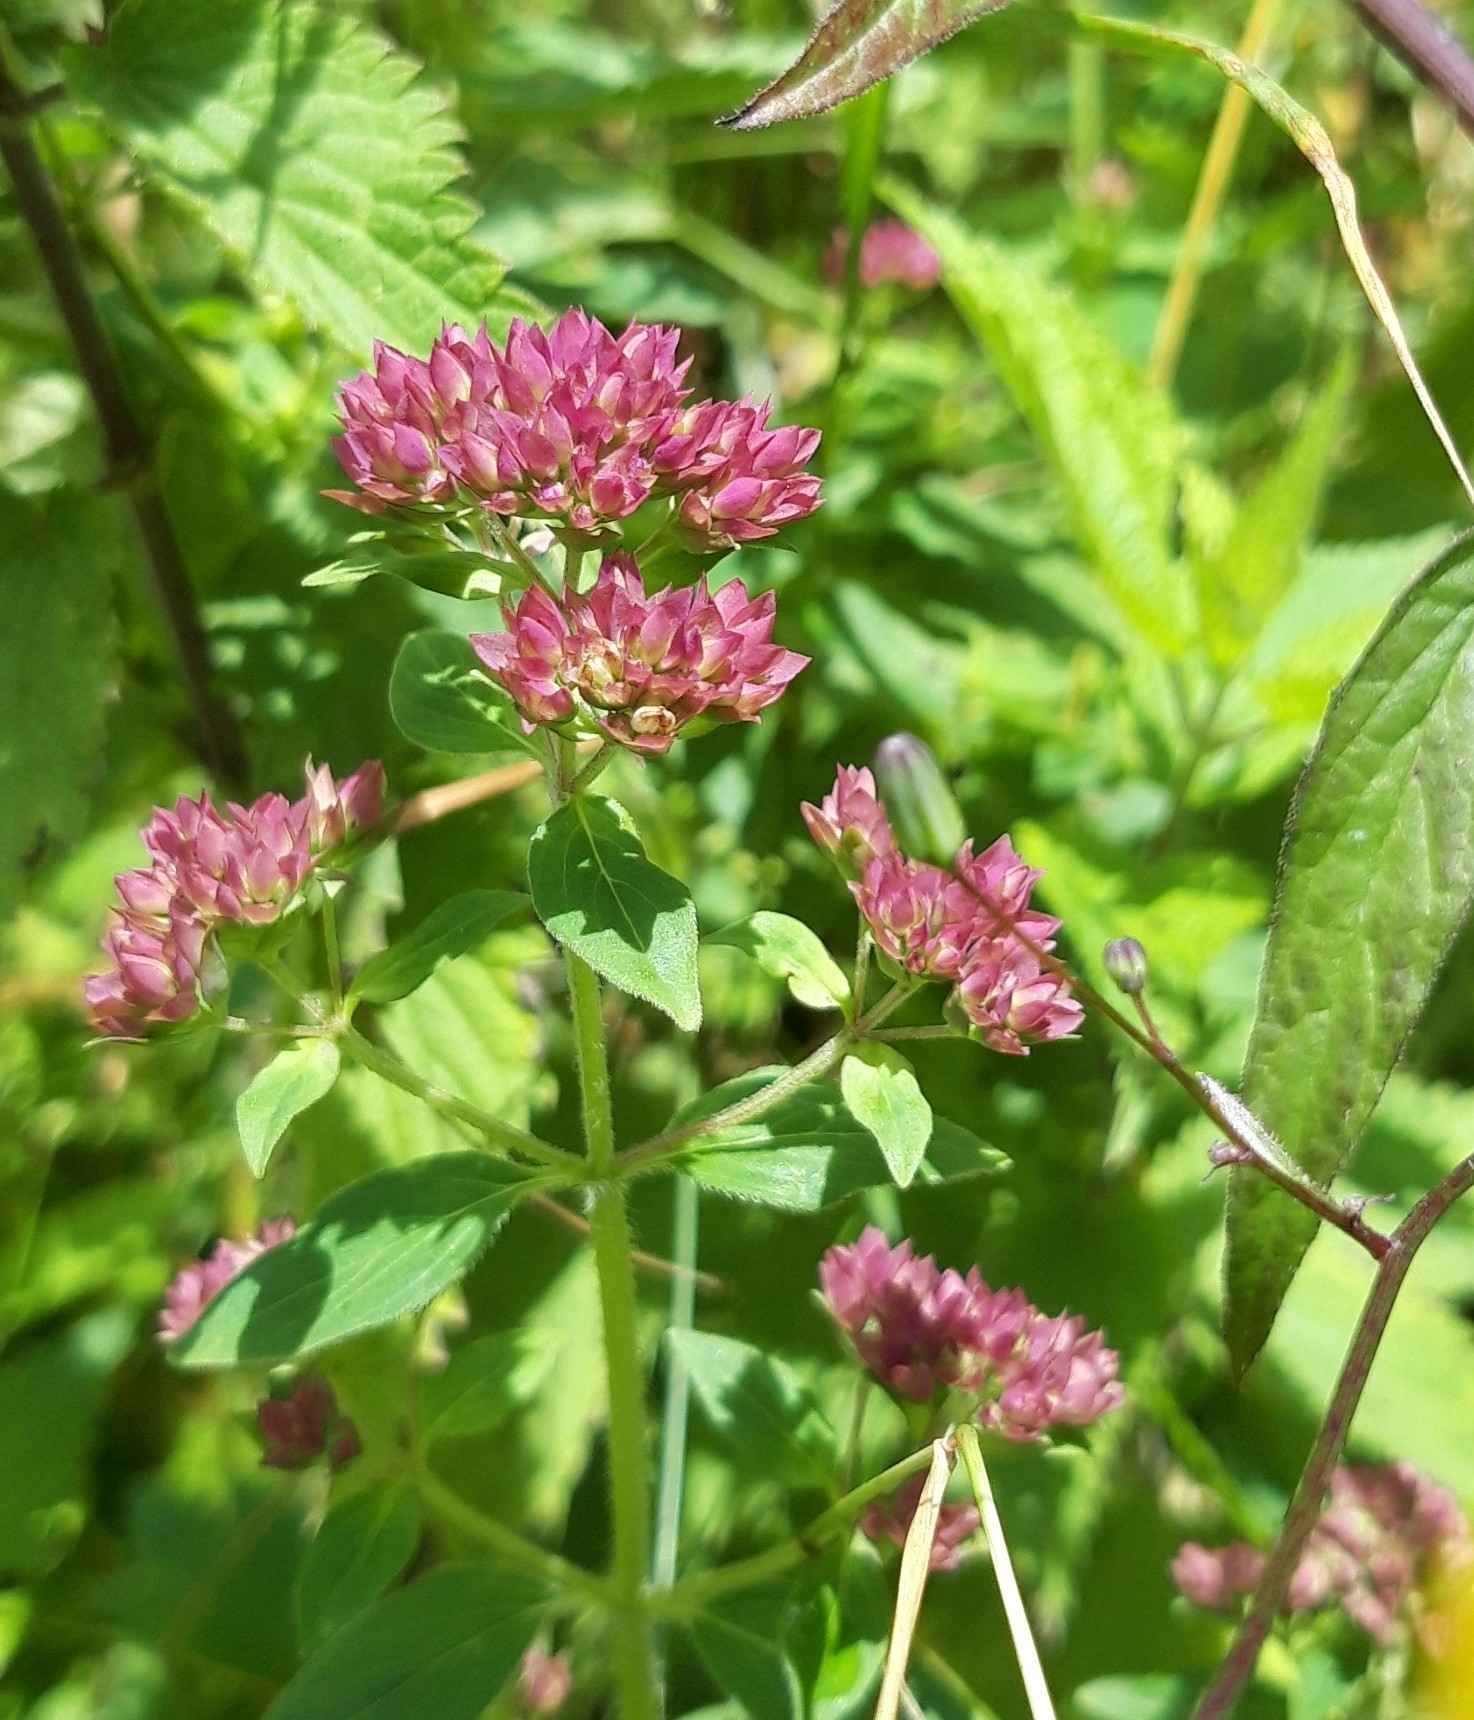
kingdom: Plantae
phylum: Tracheophyta
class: Magnoliopsida
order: Lamiales
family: Lamiaceae
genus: Origanum
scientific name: Origanum vulgare
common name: Wild marjoram
